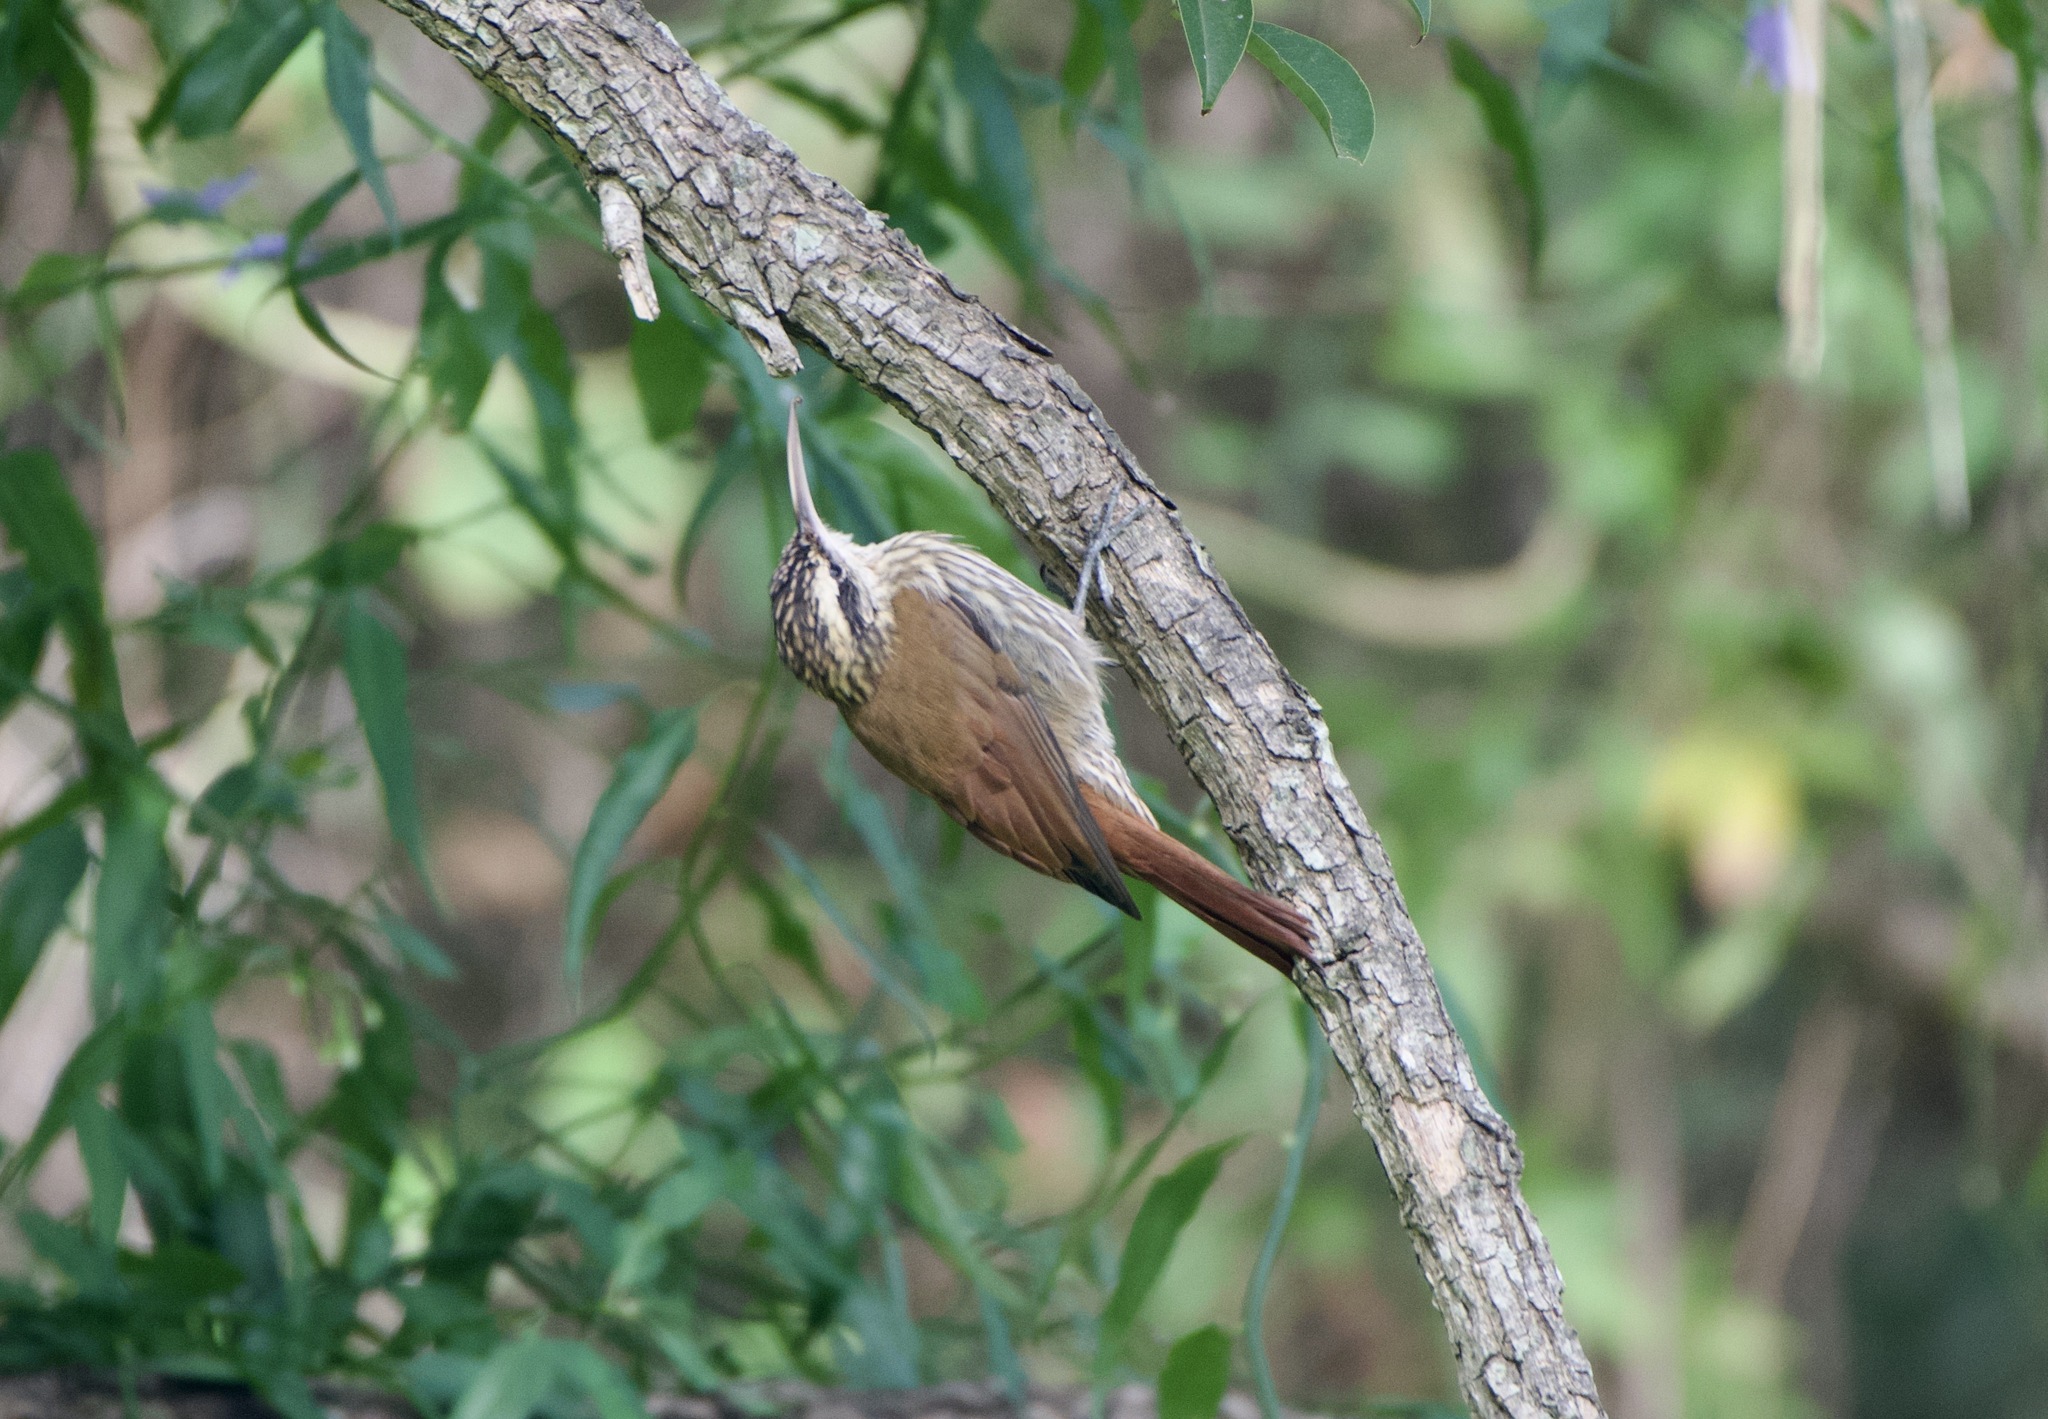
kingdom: Animalia
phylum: Chordata
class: Aves
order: Passeriformes
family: Furnariidae
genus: Lepidocolaptes
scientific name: Lepidocolaptes angustirostris
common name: Narrow-billed woodcreeper
